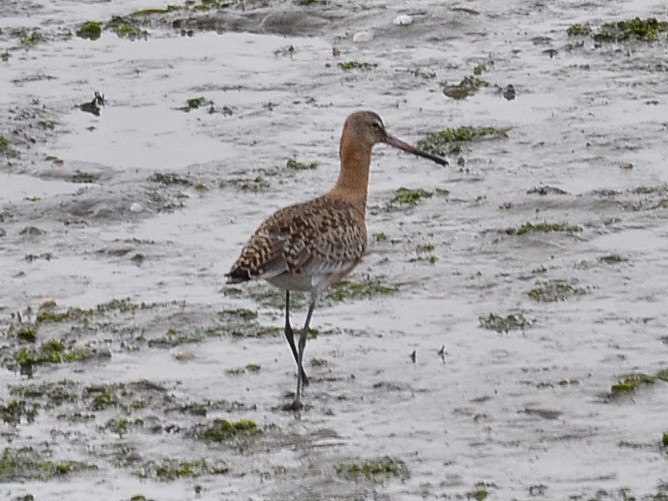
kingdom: Animalia
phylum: Chordata
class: Aves
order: Charadriiformes
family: Scolopacidae
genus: Limosa
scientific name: Limosa limosa
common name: Black-tailed godwit
